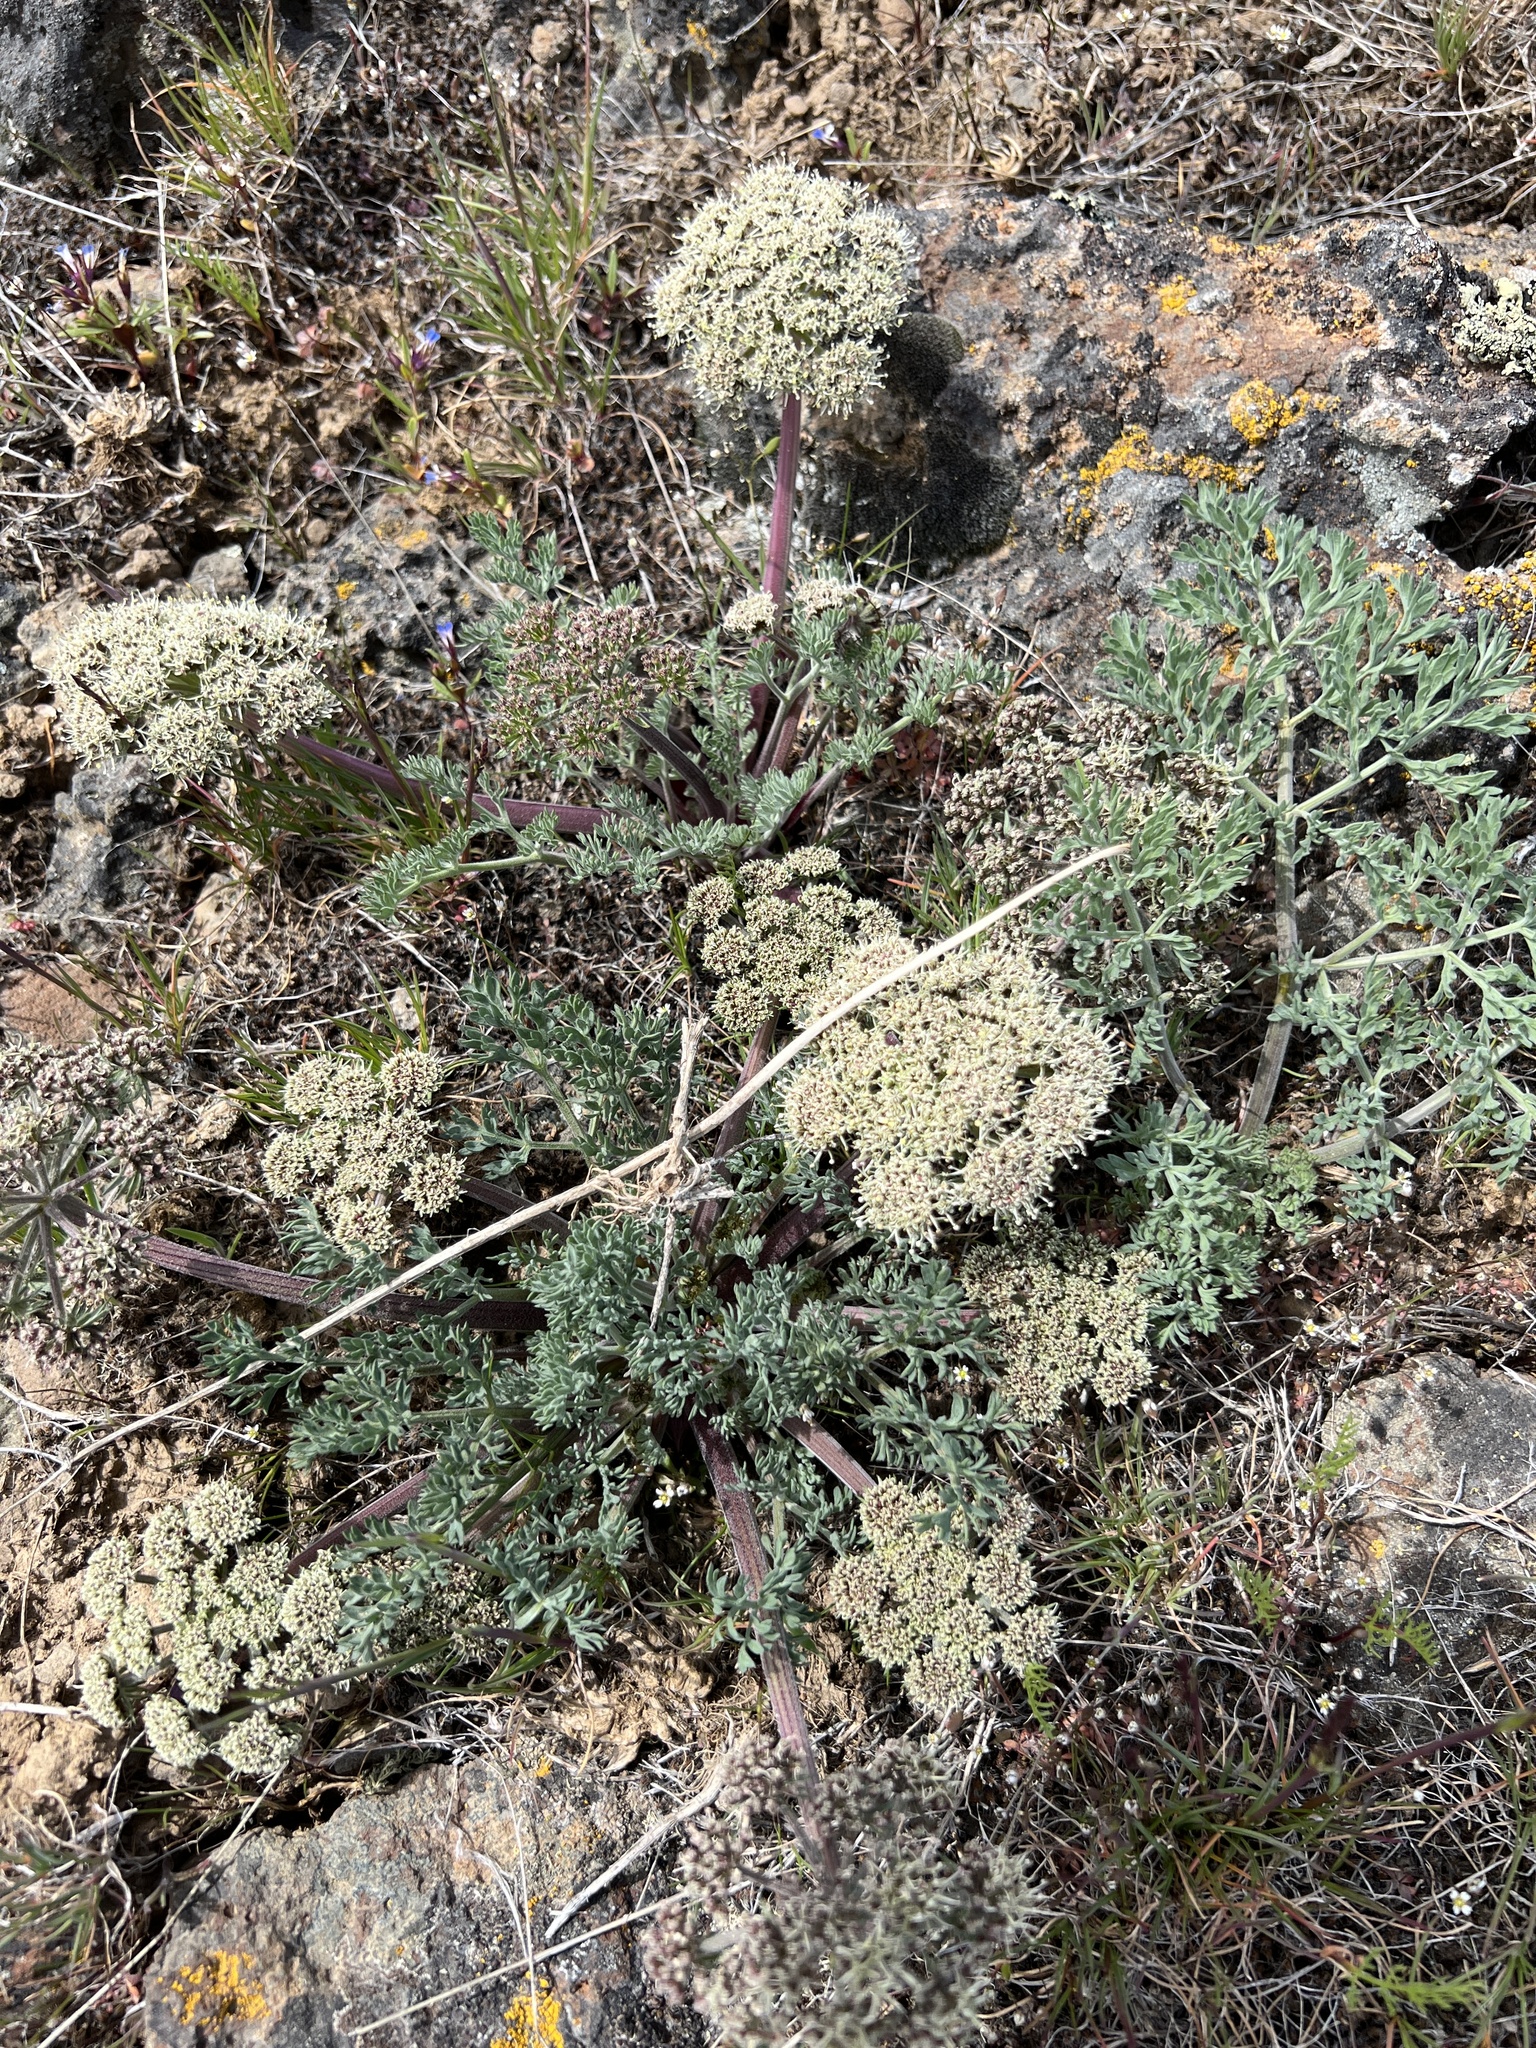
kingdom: Plantae
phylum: Tracheophyta
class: Magnoliopsida
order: Apiales
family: Apiaceae
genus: Lomatium
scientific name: Lomatium macrocarpum
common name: Big-seed biscuitroot
